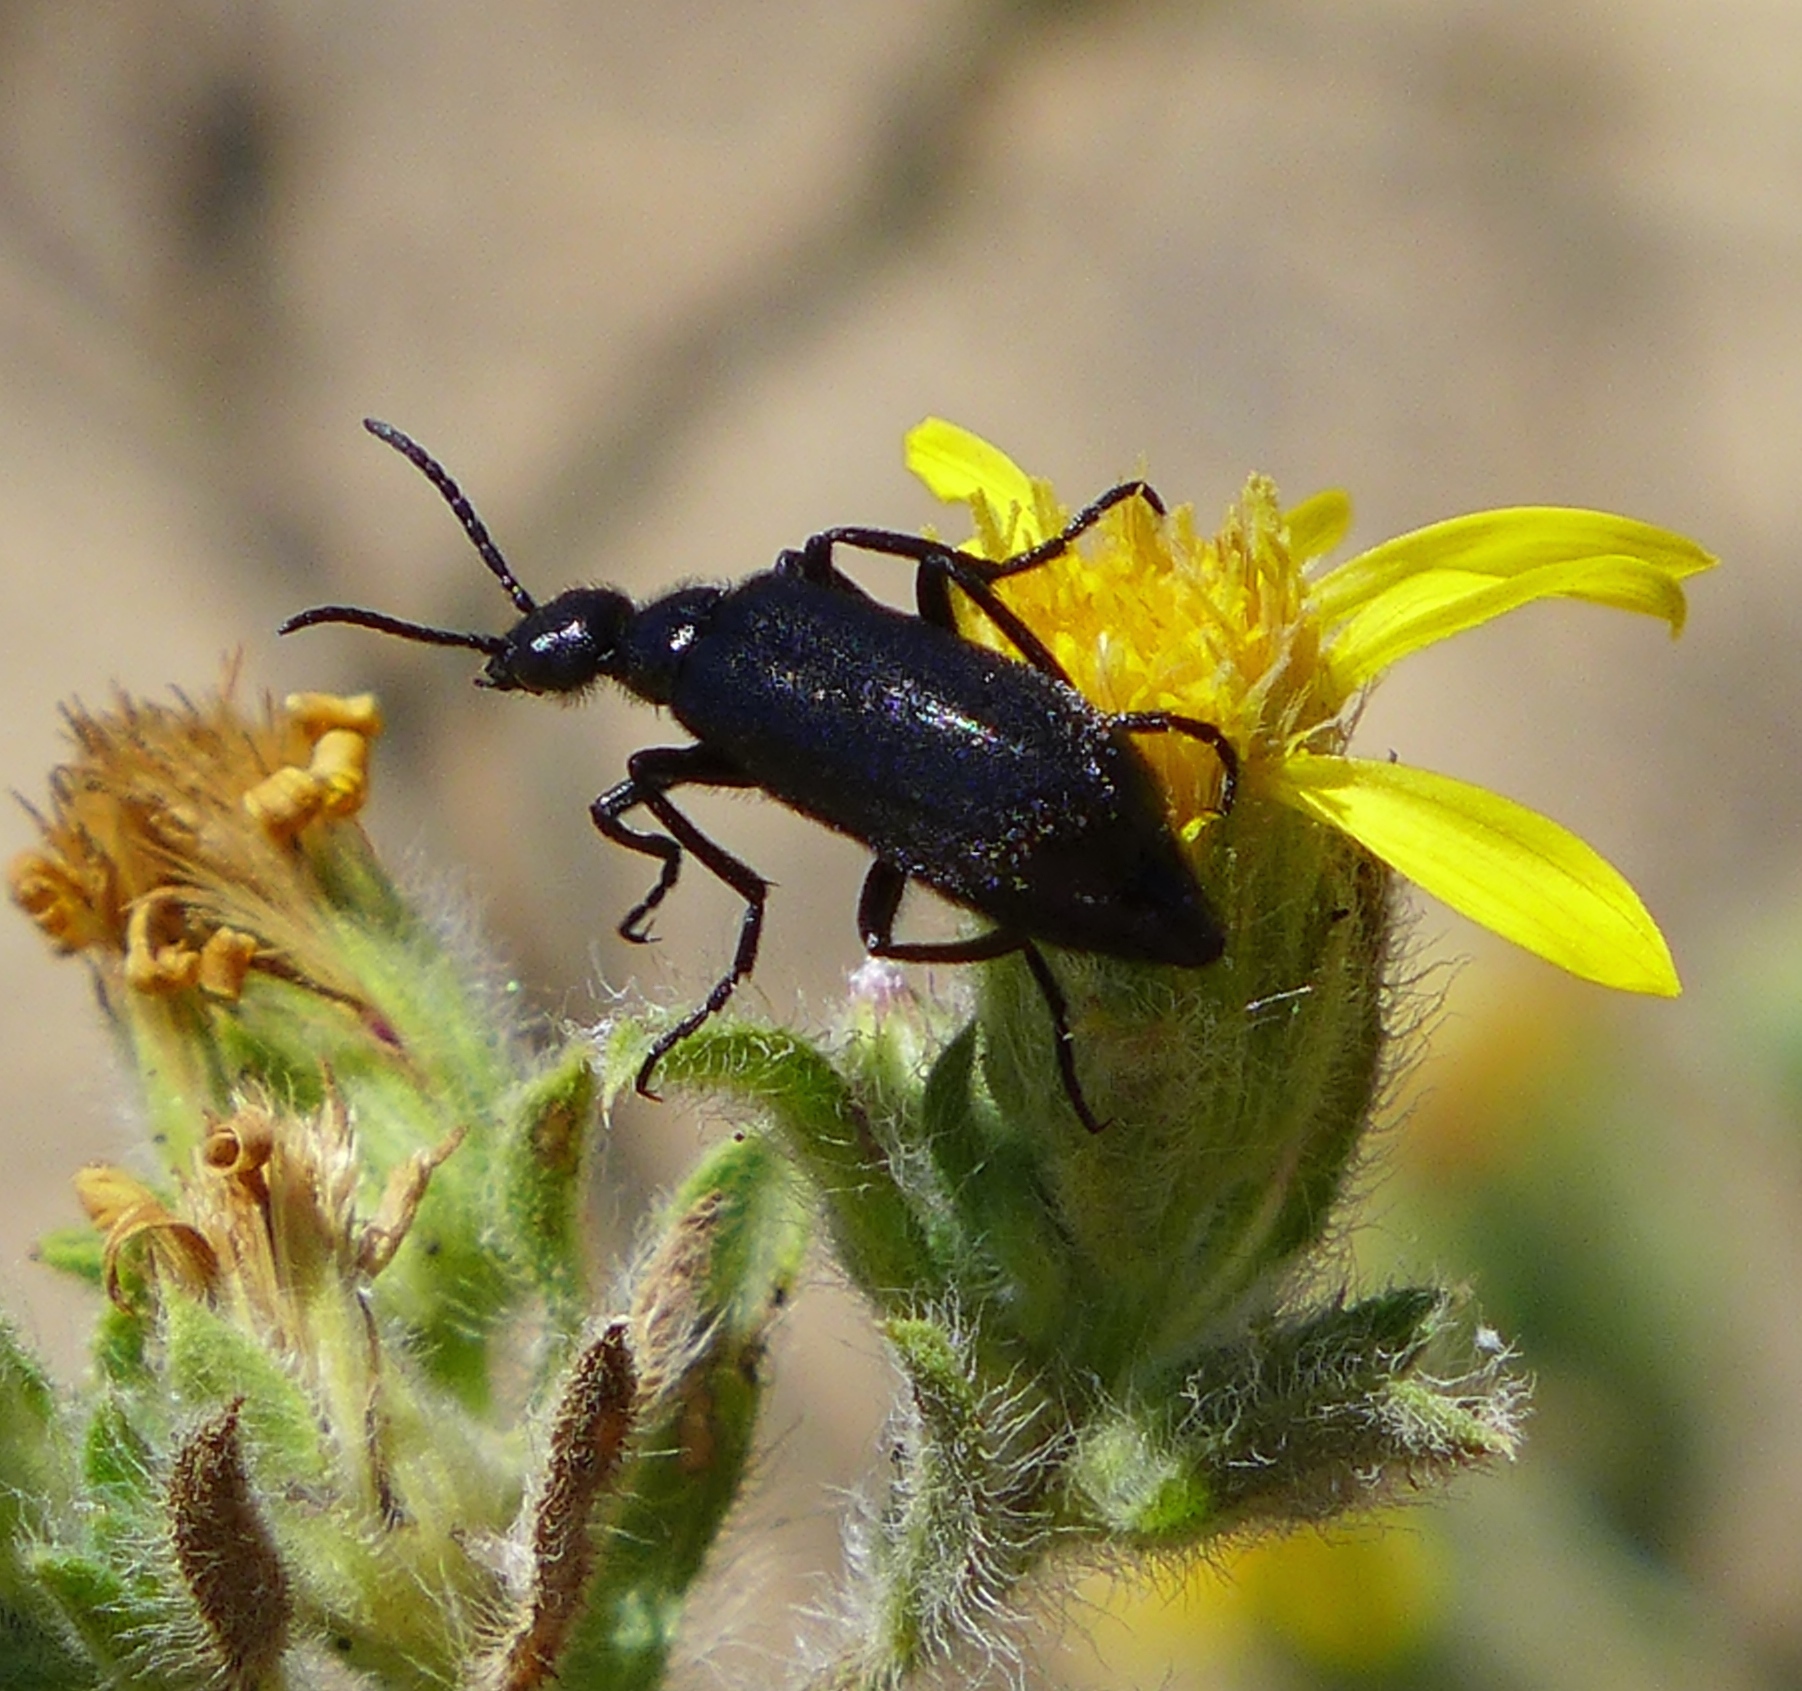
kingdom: Animalia
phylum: Arthropoda
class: Insecta
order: Coleoptera
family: Meloidae
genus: Epicauta
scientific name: Epicauta puncticollis
